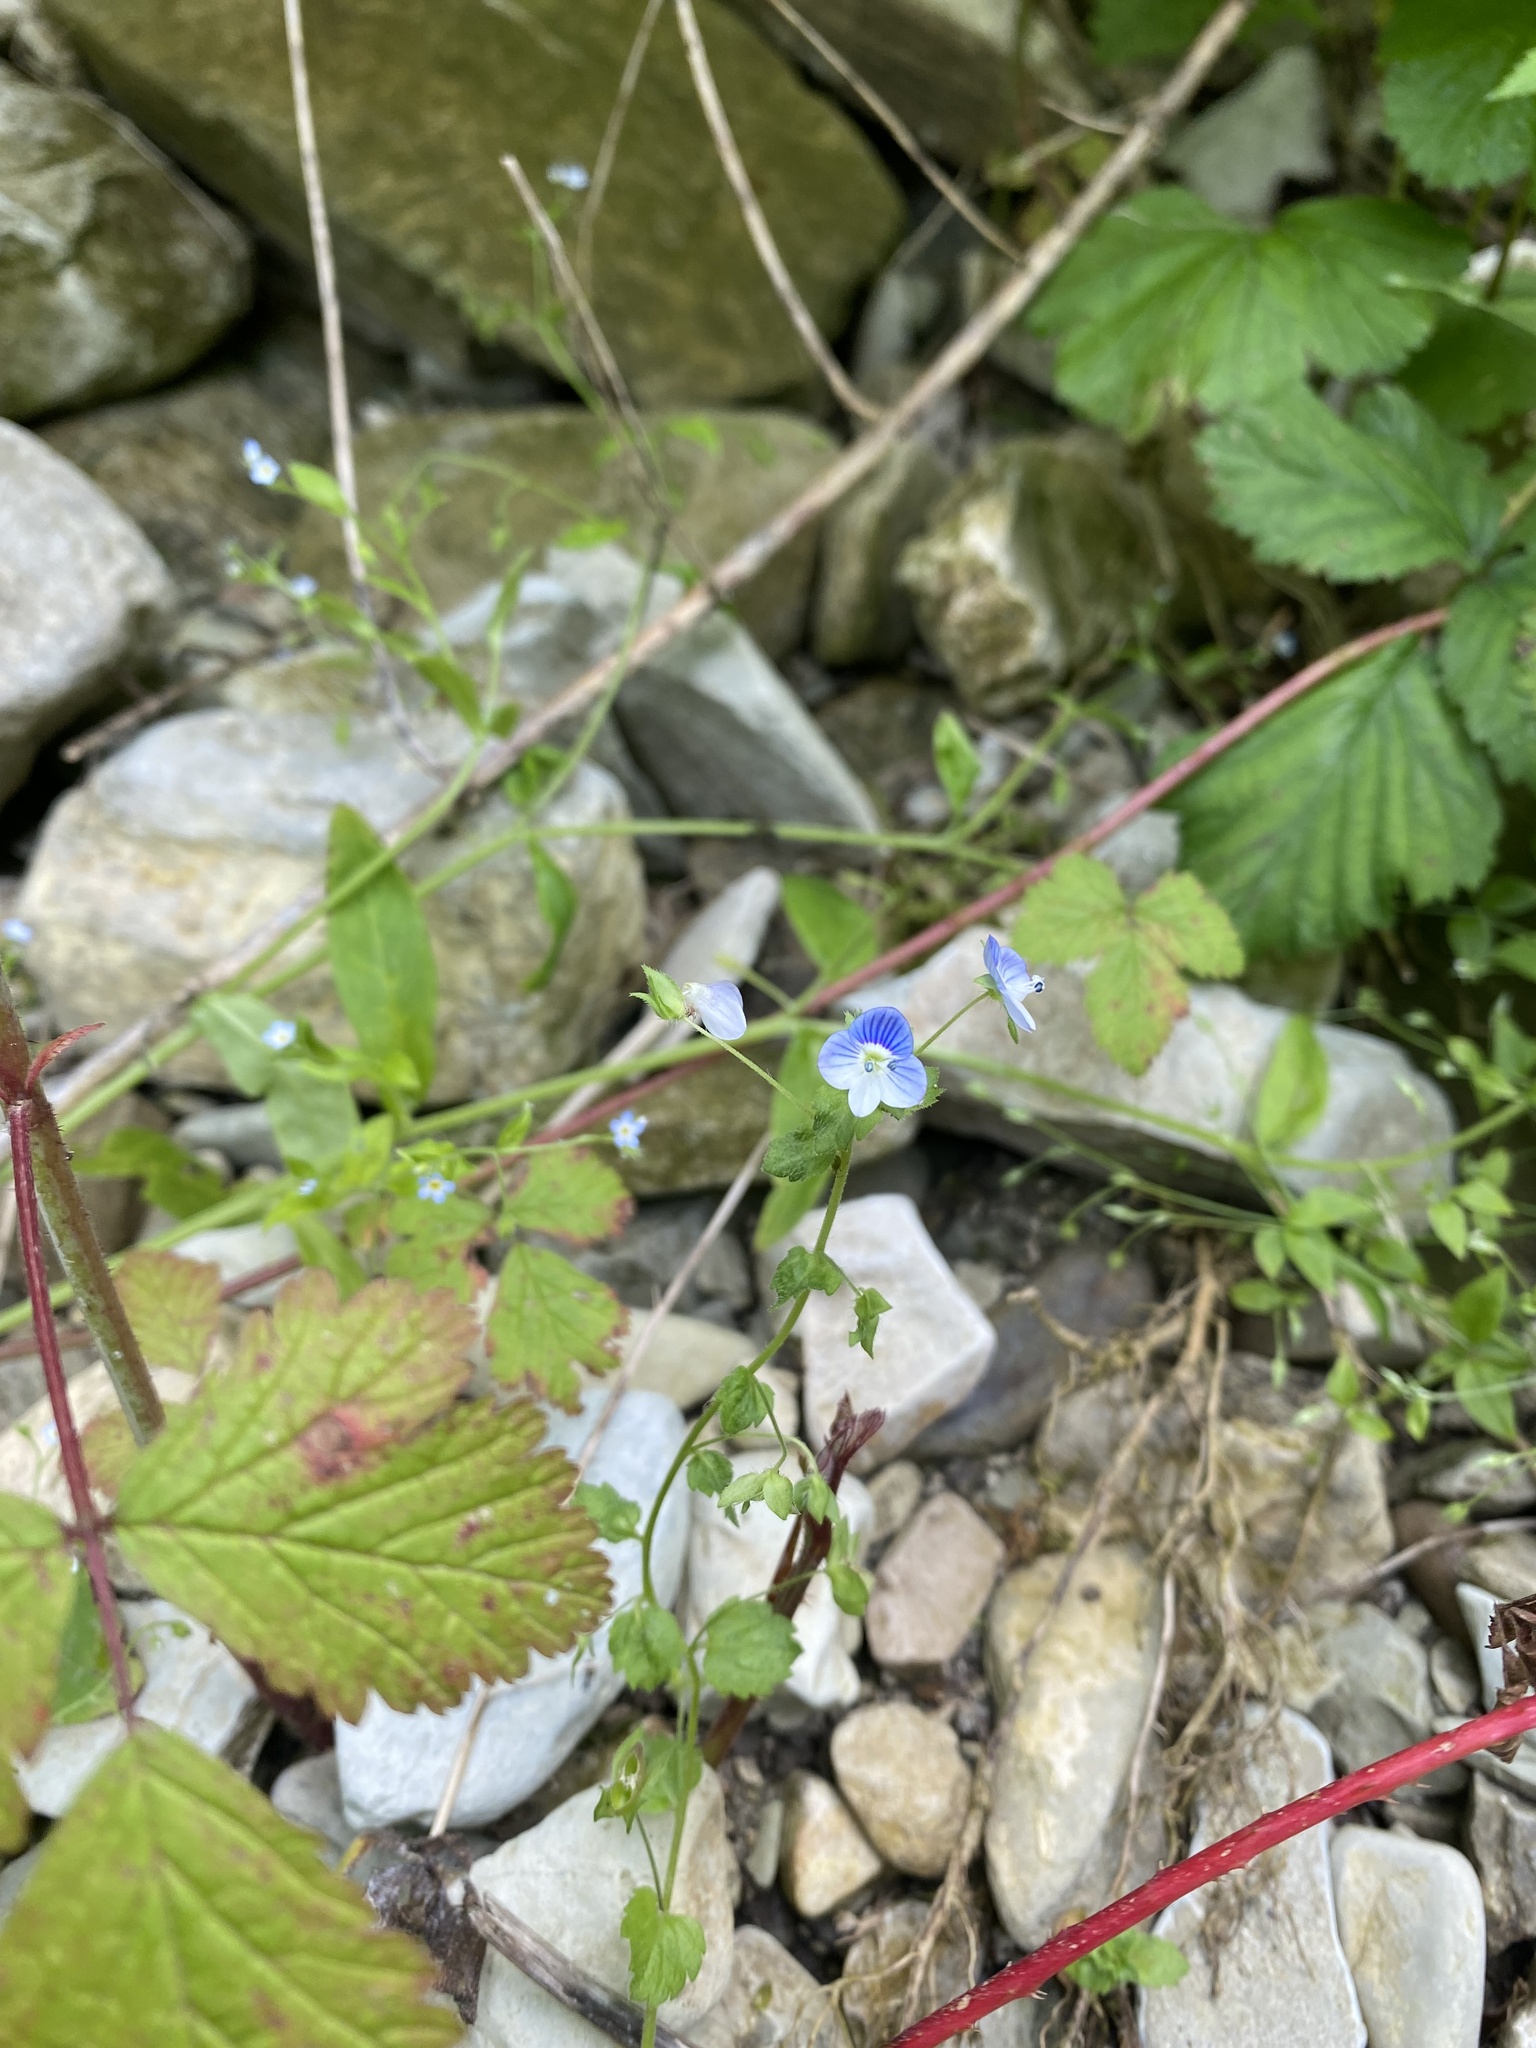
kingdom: Plantae
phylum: Tracheophyta
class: Magnoliopsida
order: Lamiales
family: Plantaginaceae
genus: Veronica
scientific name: Veronica persica
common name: Common field-speedwell
